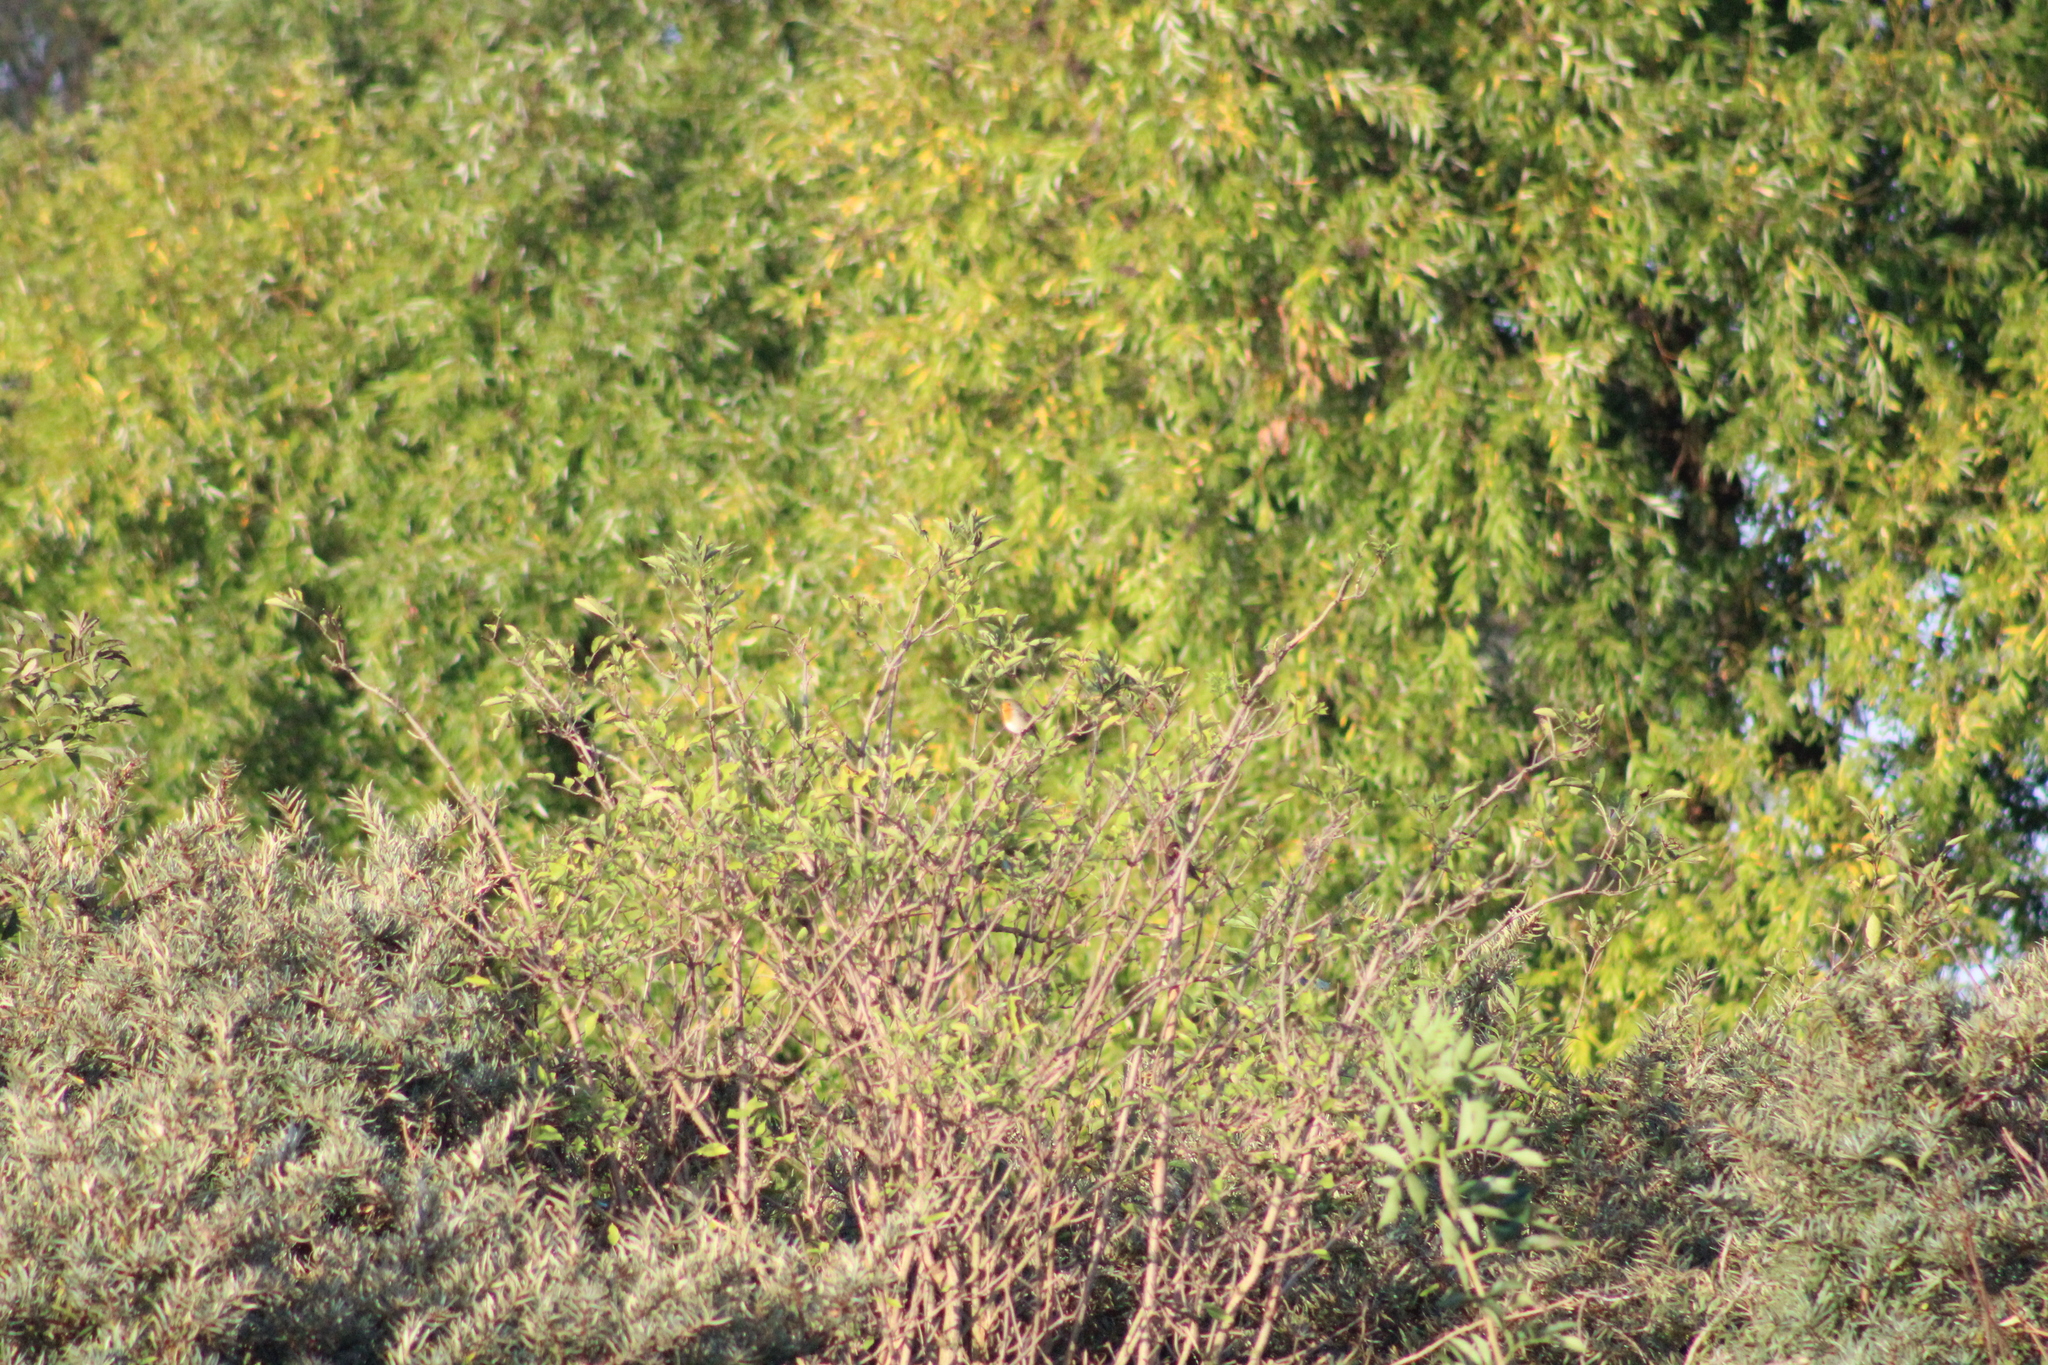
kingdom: Animalia
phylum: Chordata
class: Aves
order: Passeriformes
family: Muscicapidae
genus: Erithacus
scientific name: Erithacus rubecula
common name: European robin
